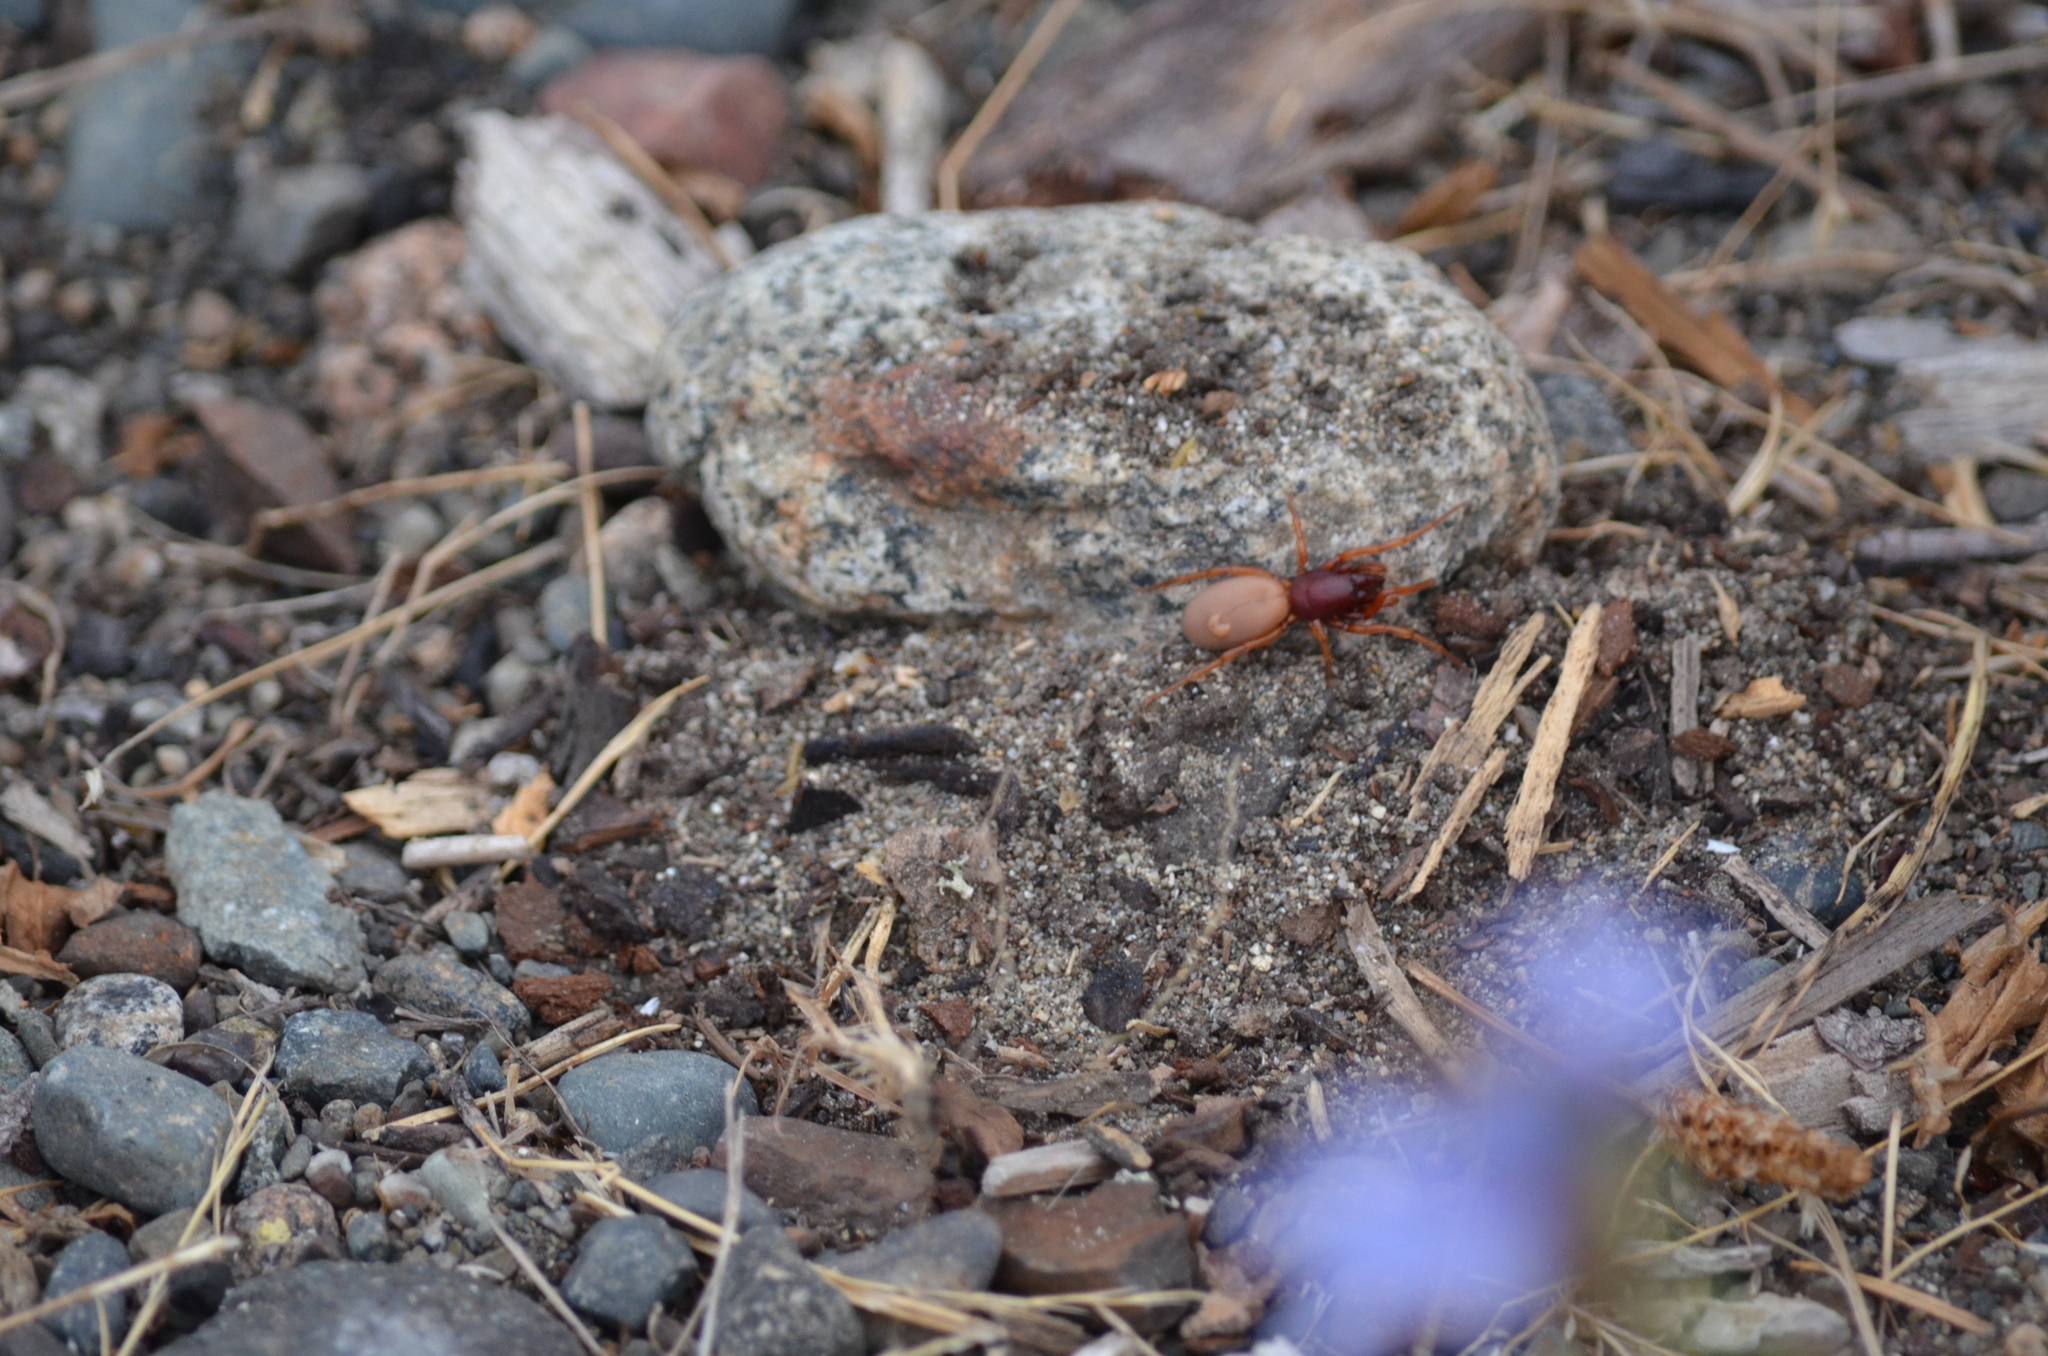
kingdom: Animalia
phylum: Arthropoda
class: Arachnida
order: Araneae
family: Dysderidae
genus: Dysdera
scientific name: Dysdera crocata
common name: Woodlouse spider
